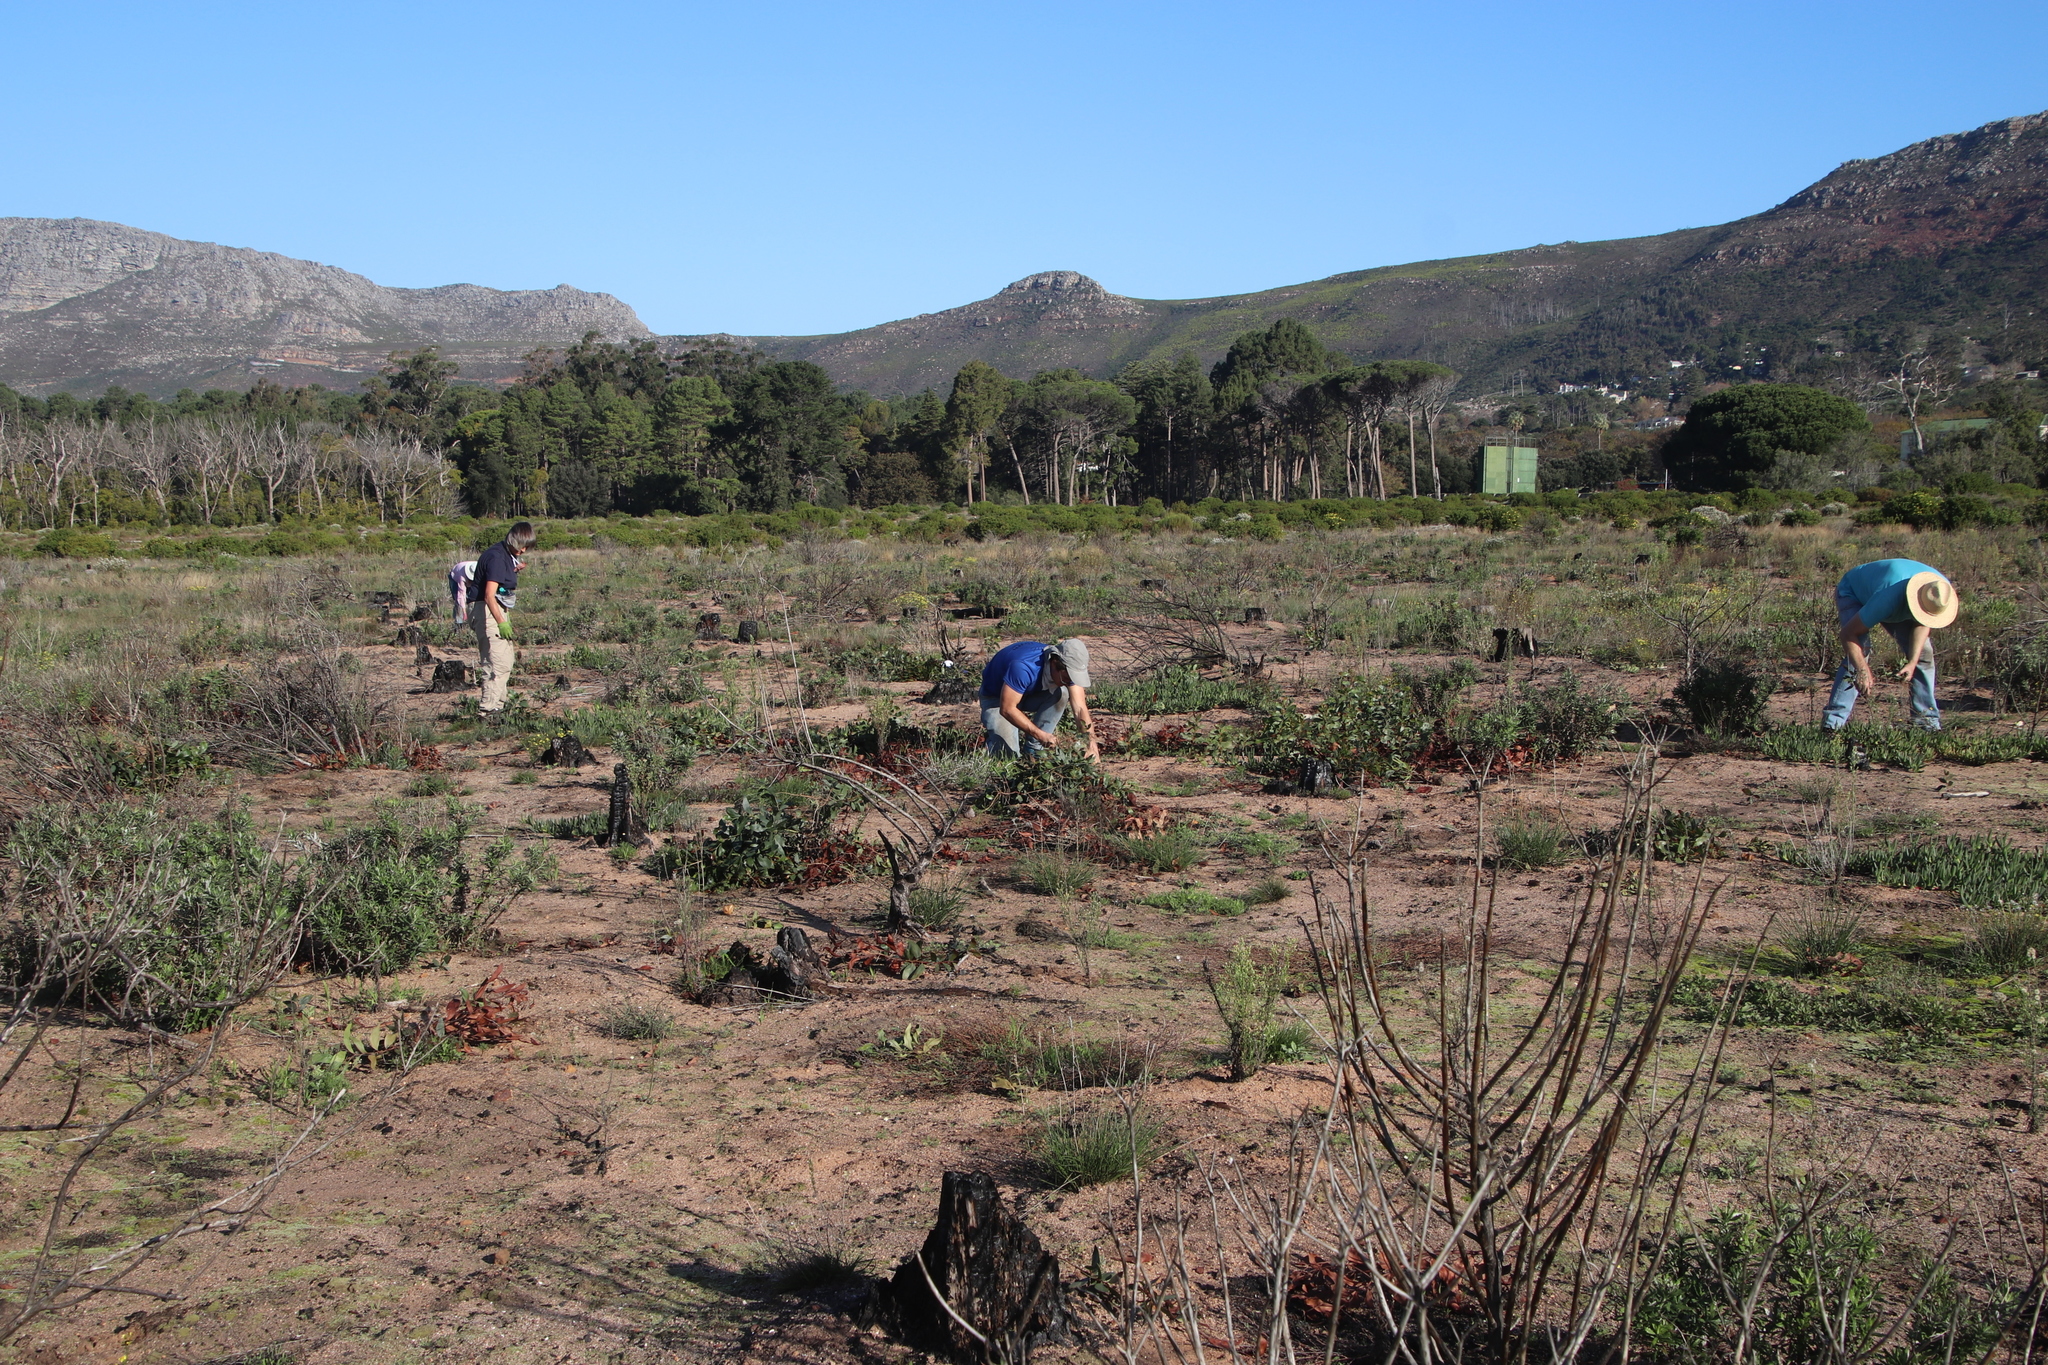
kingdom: Plantae
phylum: Tracheophyta
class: Magnoliopsida
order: Fabales
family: Fabaceae
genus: Acacia
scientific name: Acacia pycnantha
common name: Golden wattle
